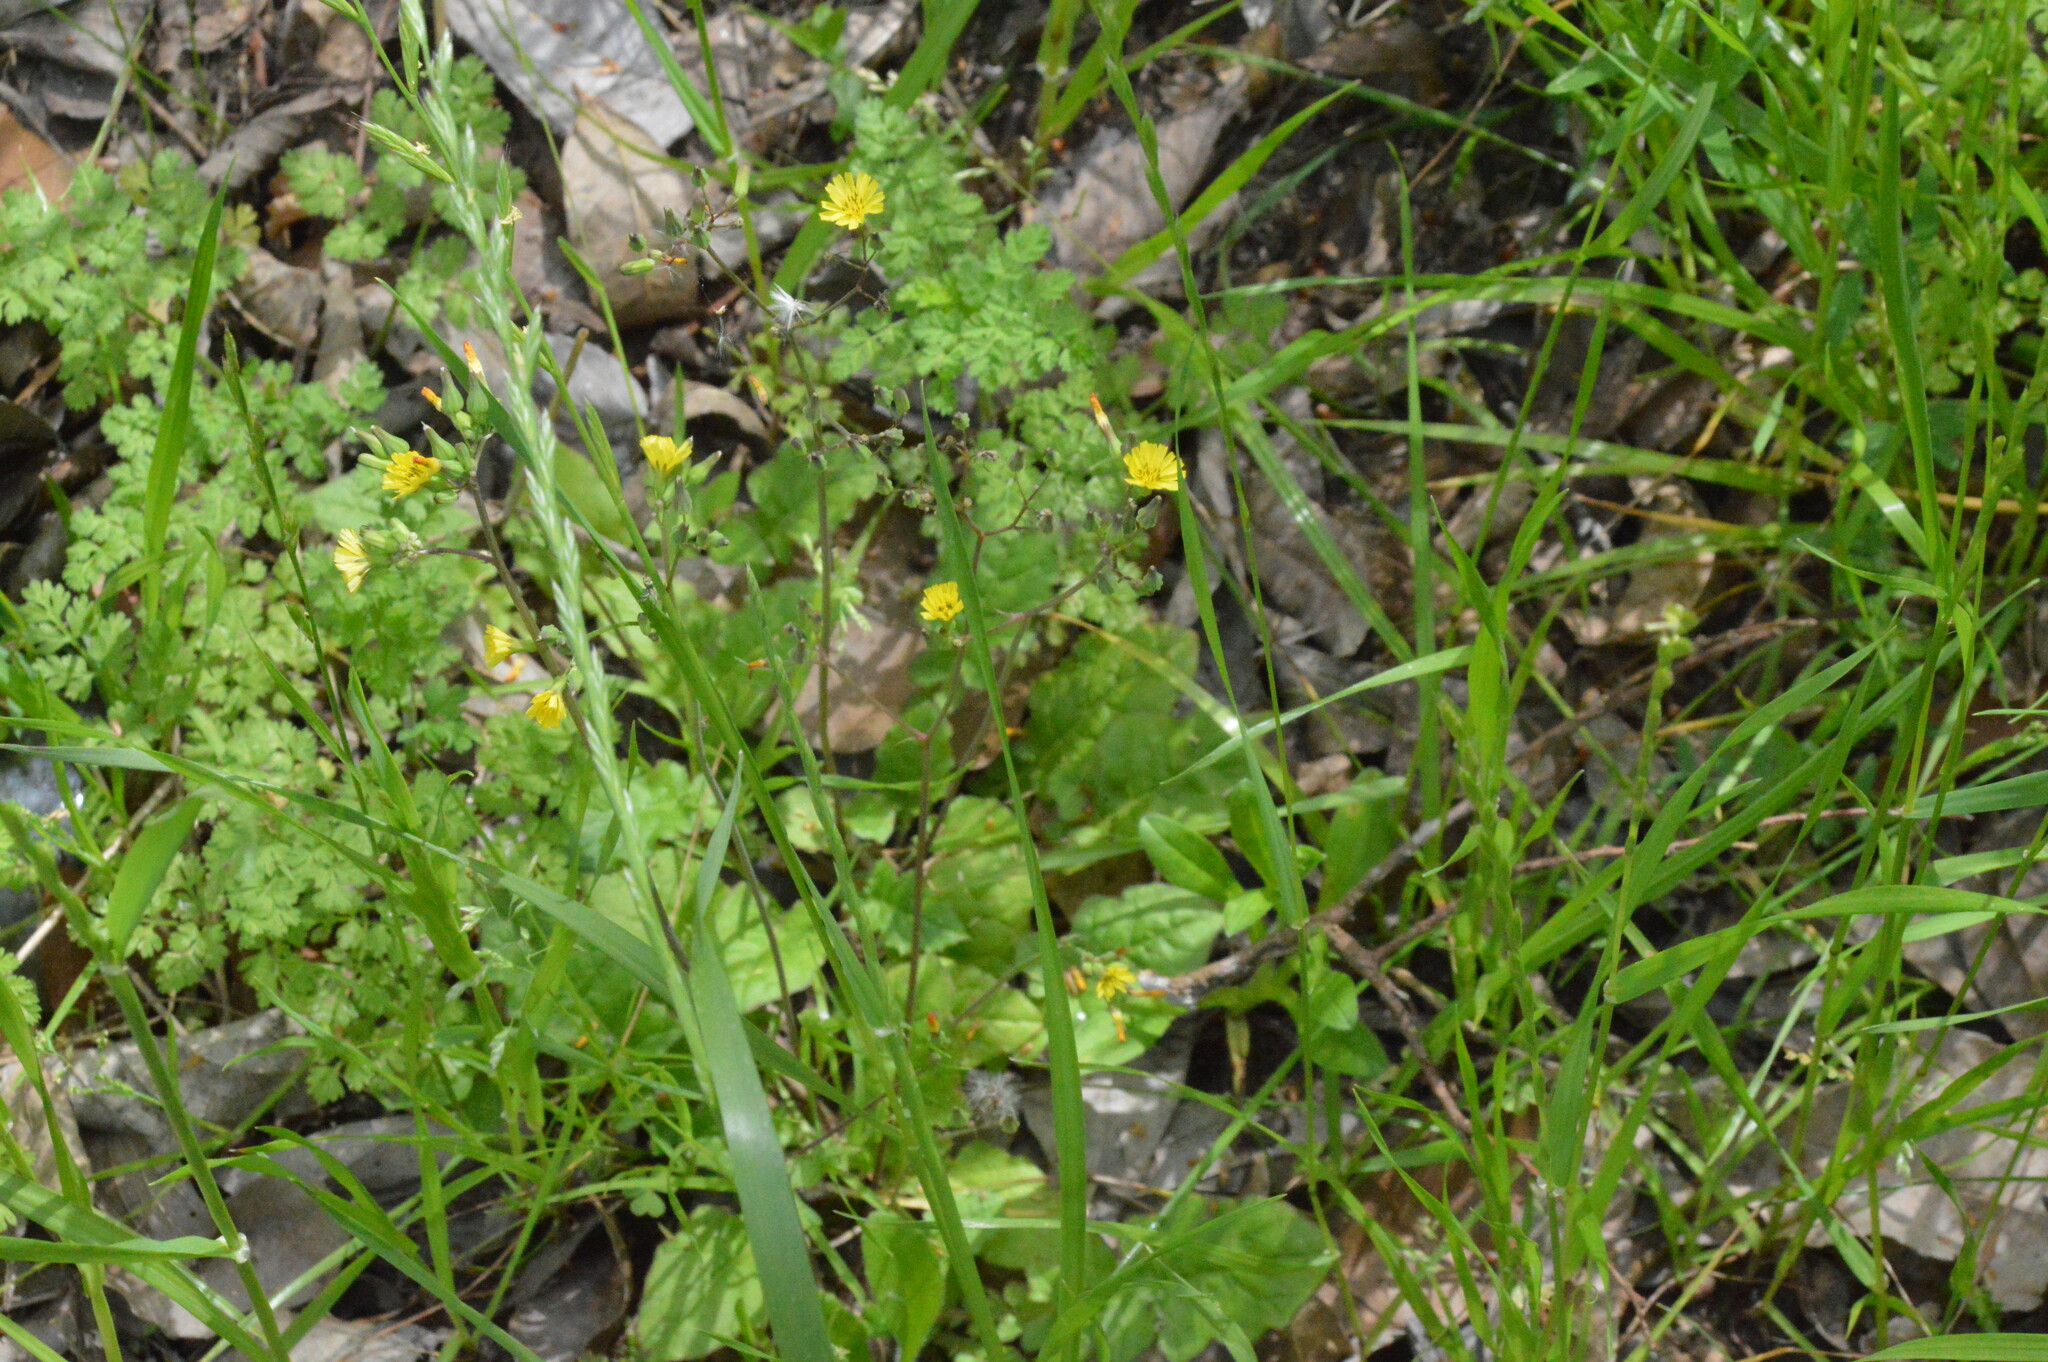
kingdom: Plantae
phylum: Tracheophyta
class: Magnoliopsida
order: Asterales
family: Asteraceae
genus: Youngia
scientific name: Youngia japonica
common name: Oriental false hawksbeard
